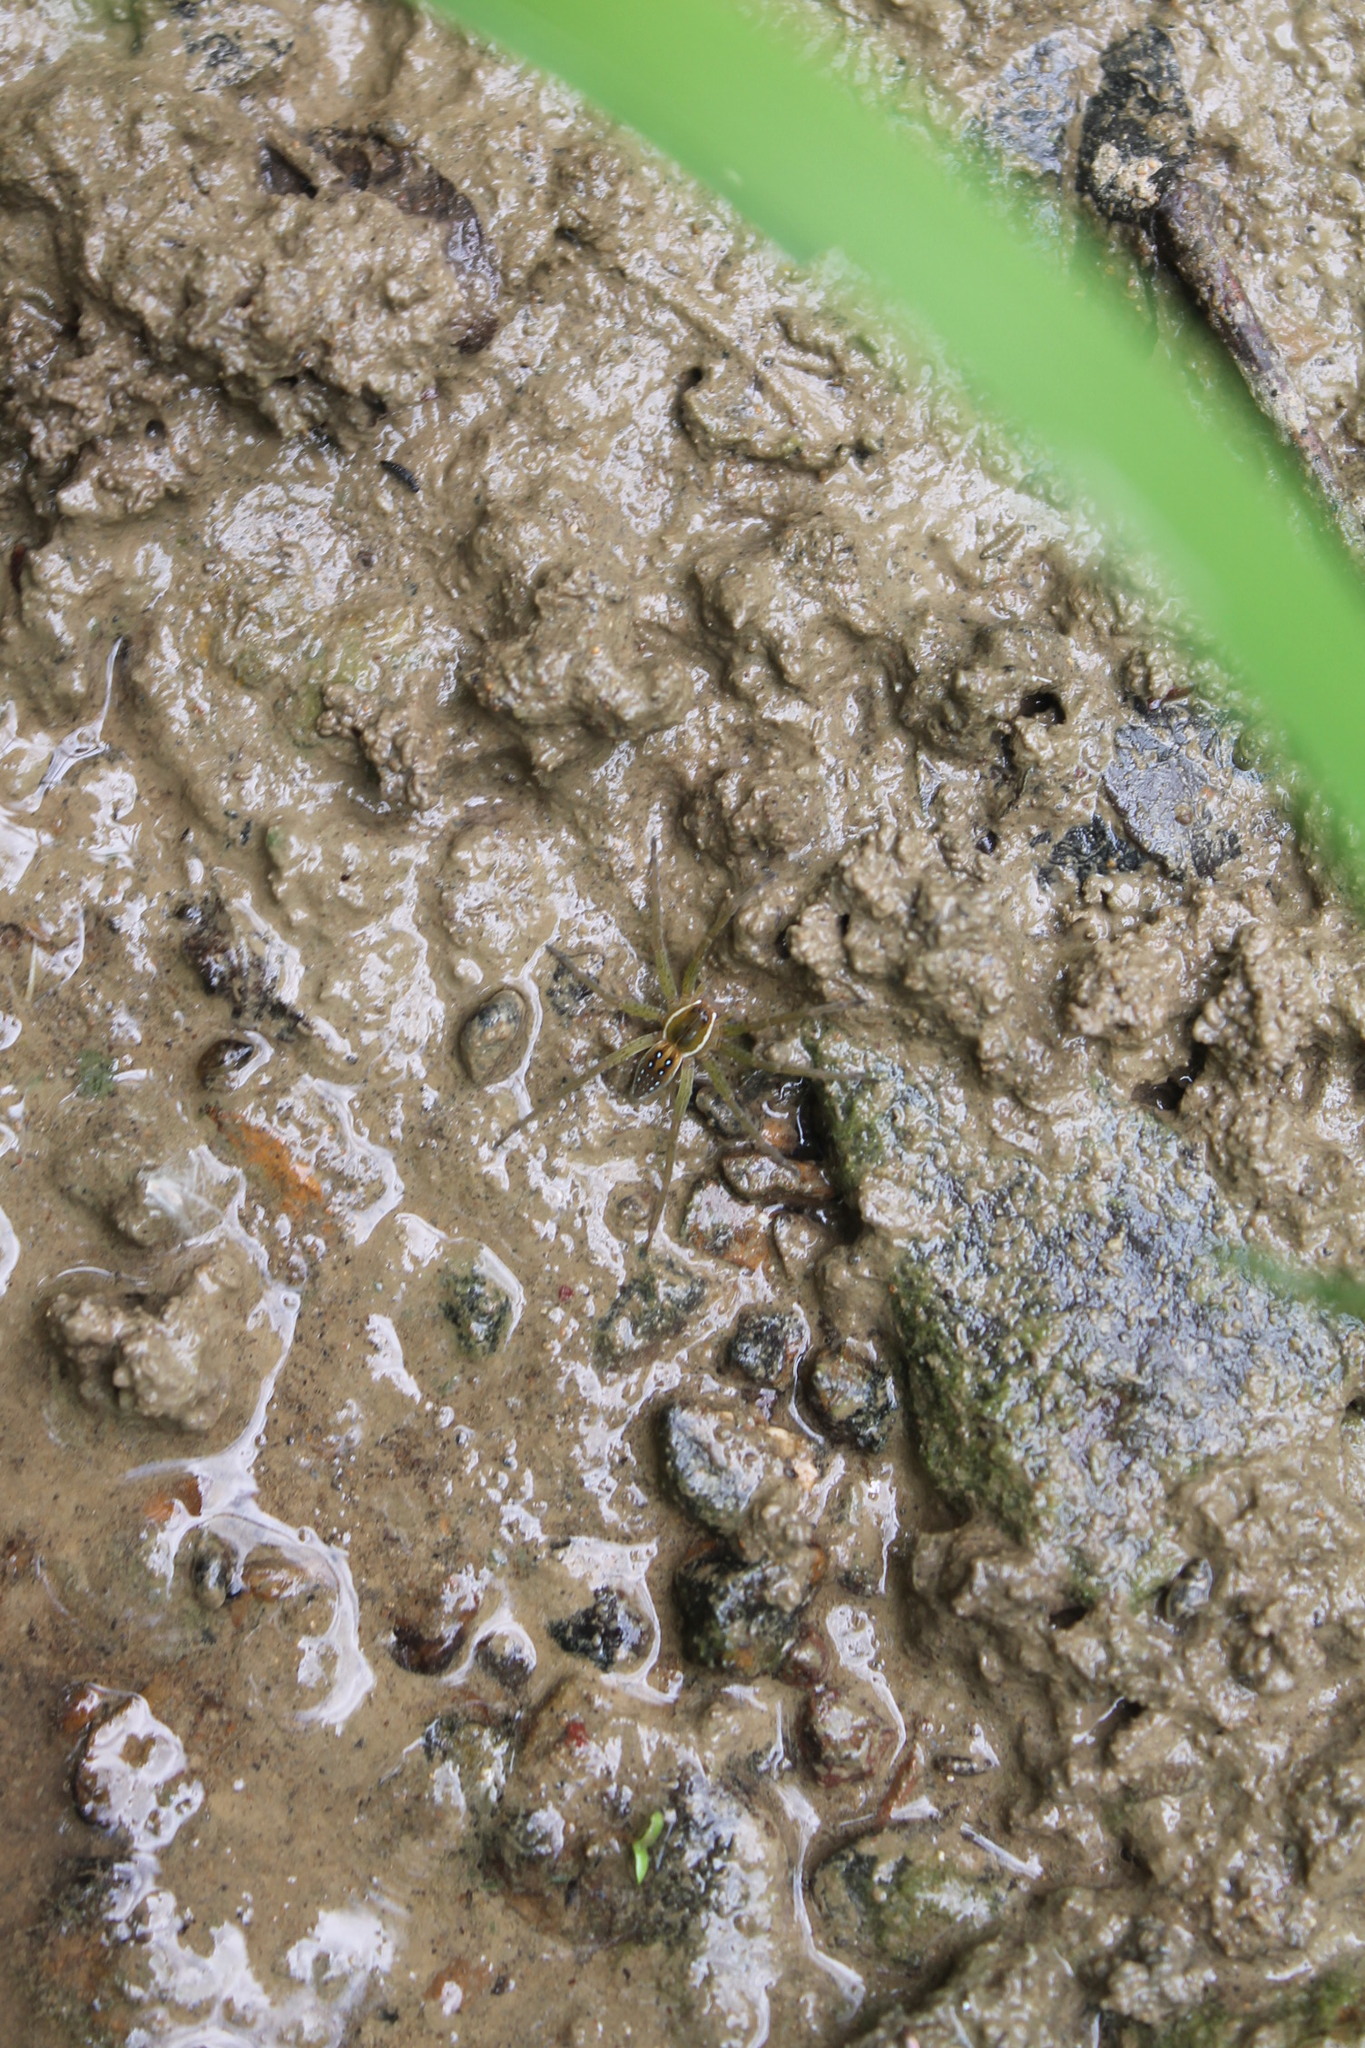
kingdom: Animalia
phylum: Arthropoda
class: Arachnida
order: Araneae
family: Pisauridae
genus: Dolomedes
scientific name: Dolomedes triton
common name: Six-spotted fishing spider
